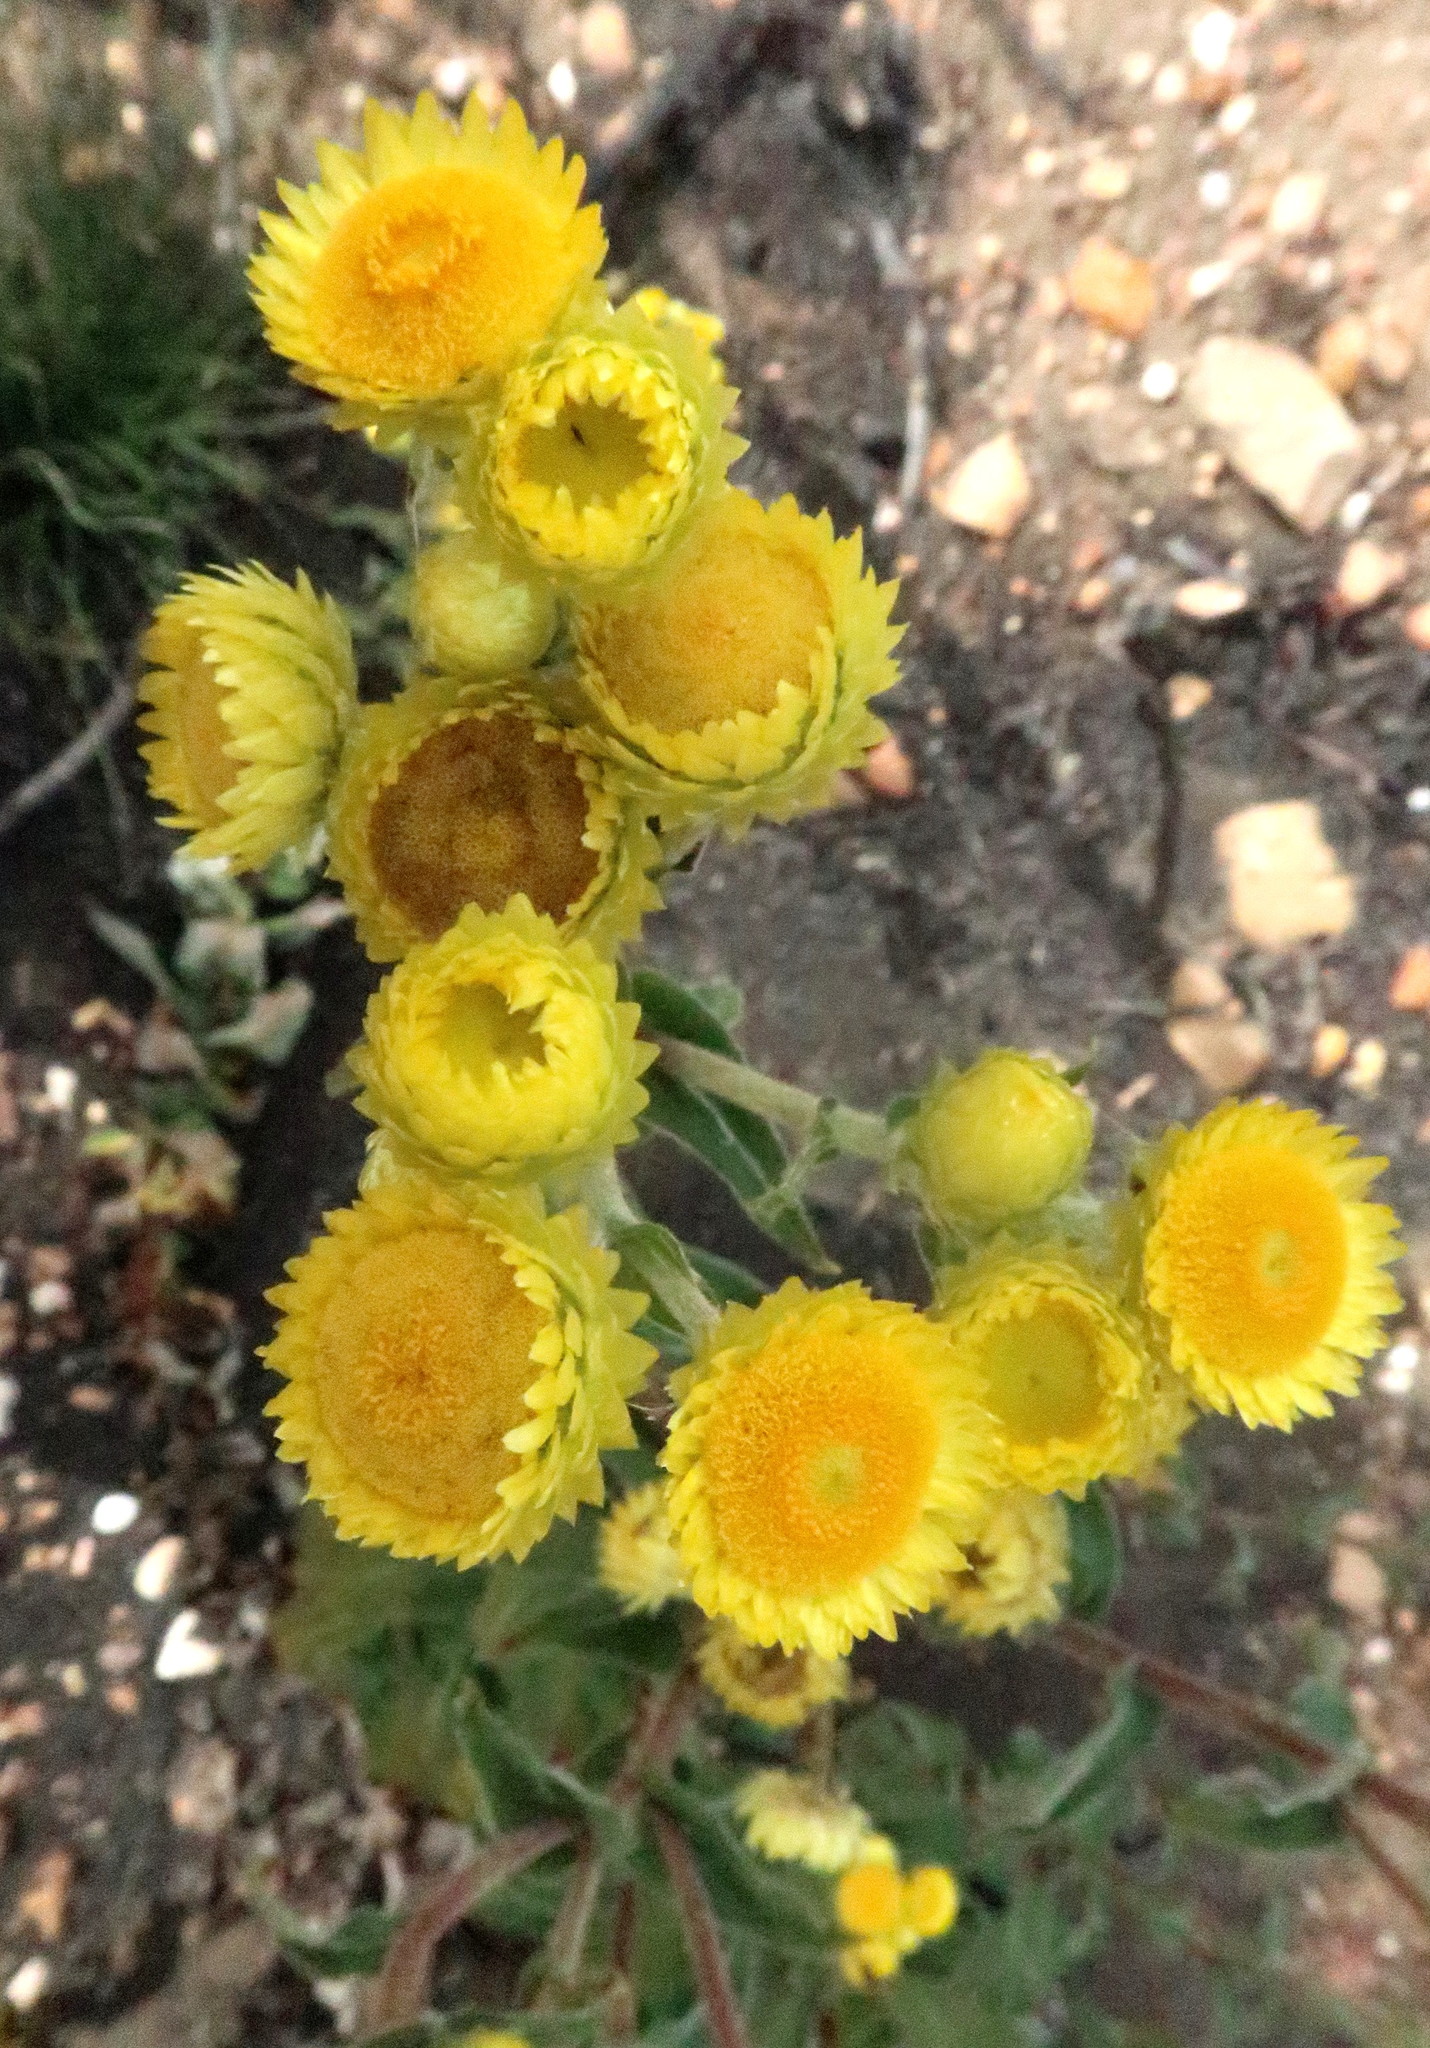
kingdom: Plantae
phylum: Tracheophyta
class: Magnoliopsida
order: Asterales
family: Asteraceae
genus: Helichrysum
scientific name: Helichrysum foetidum
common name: Stinking everlasting
